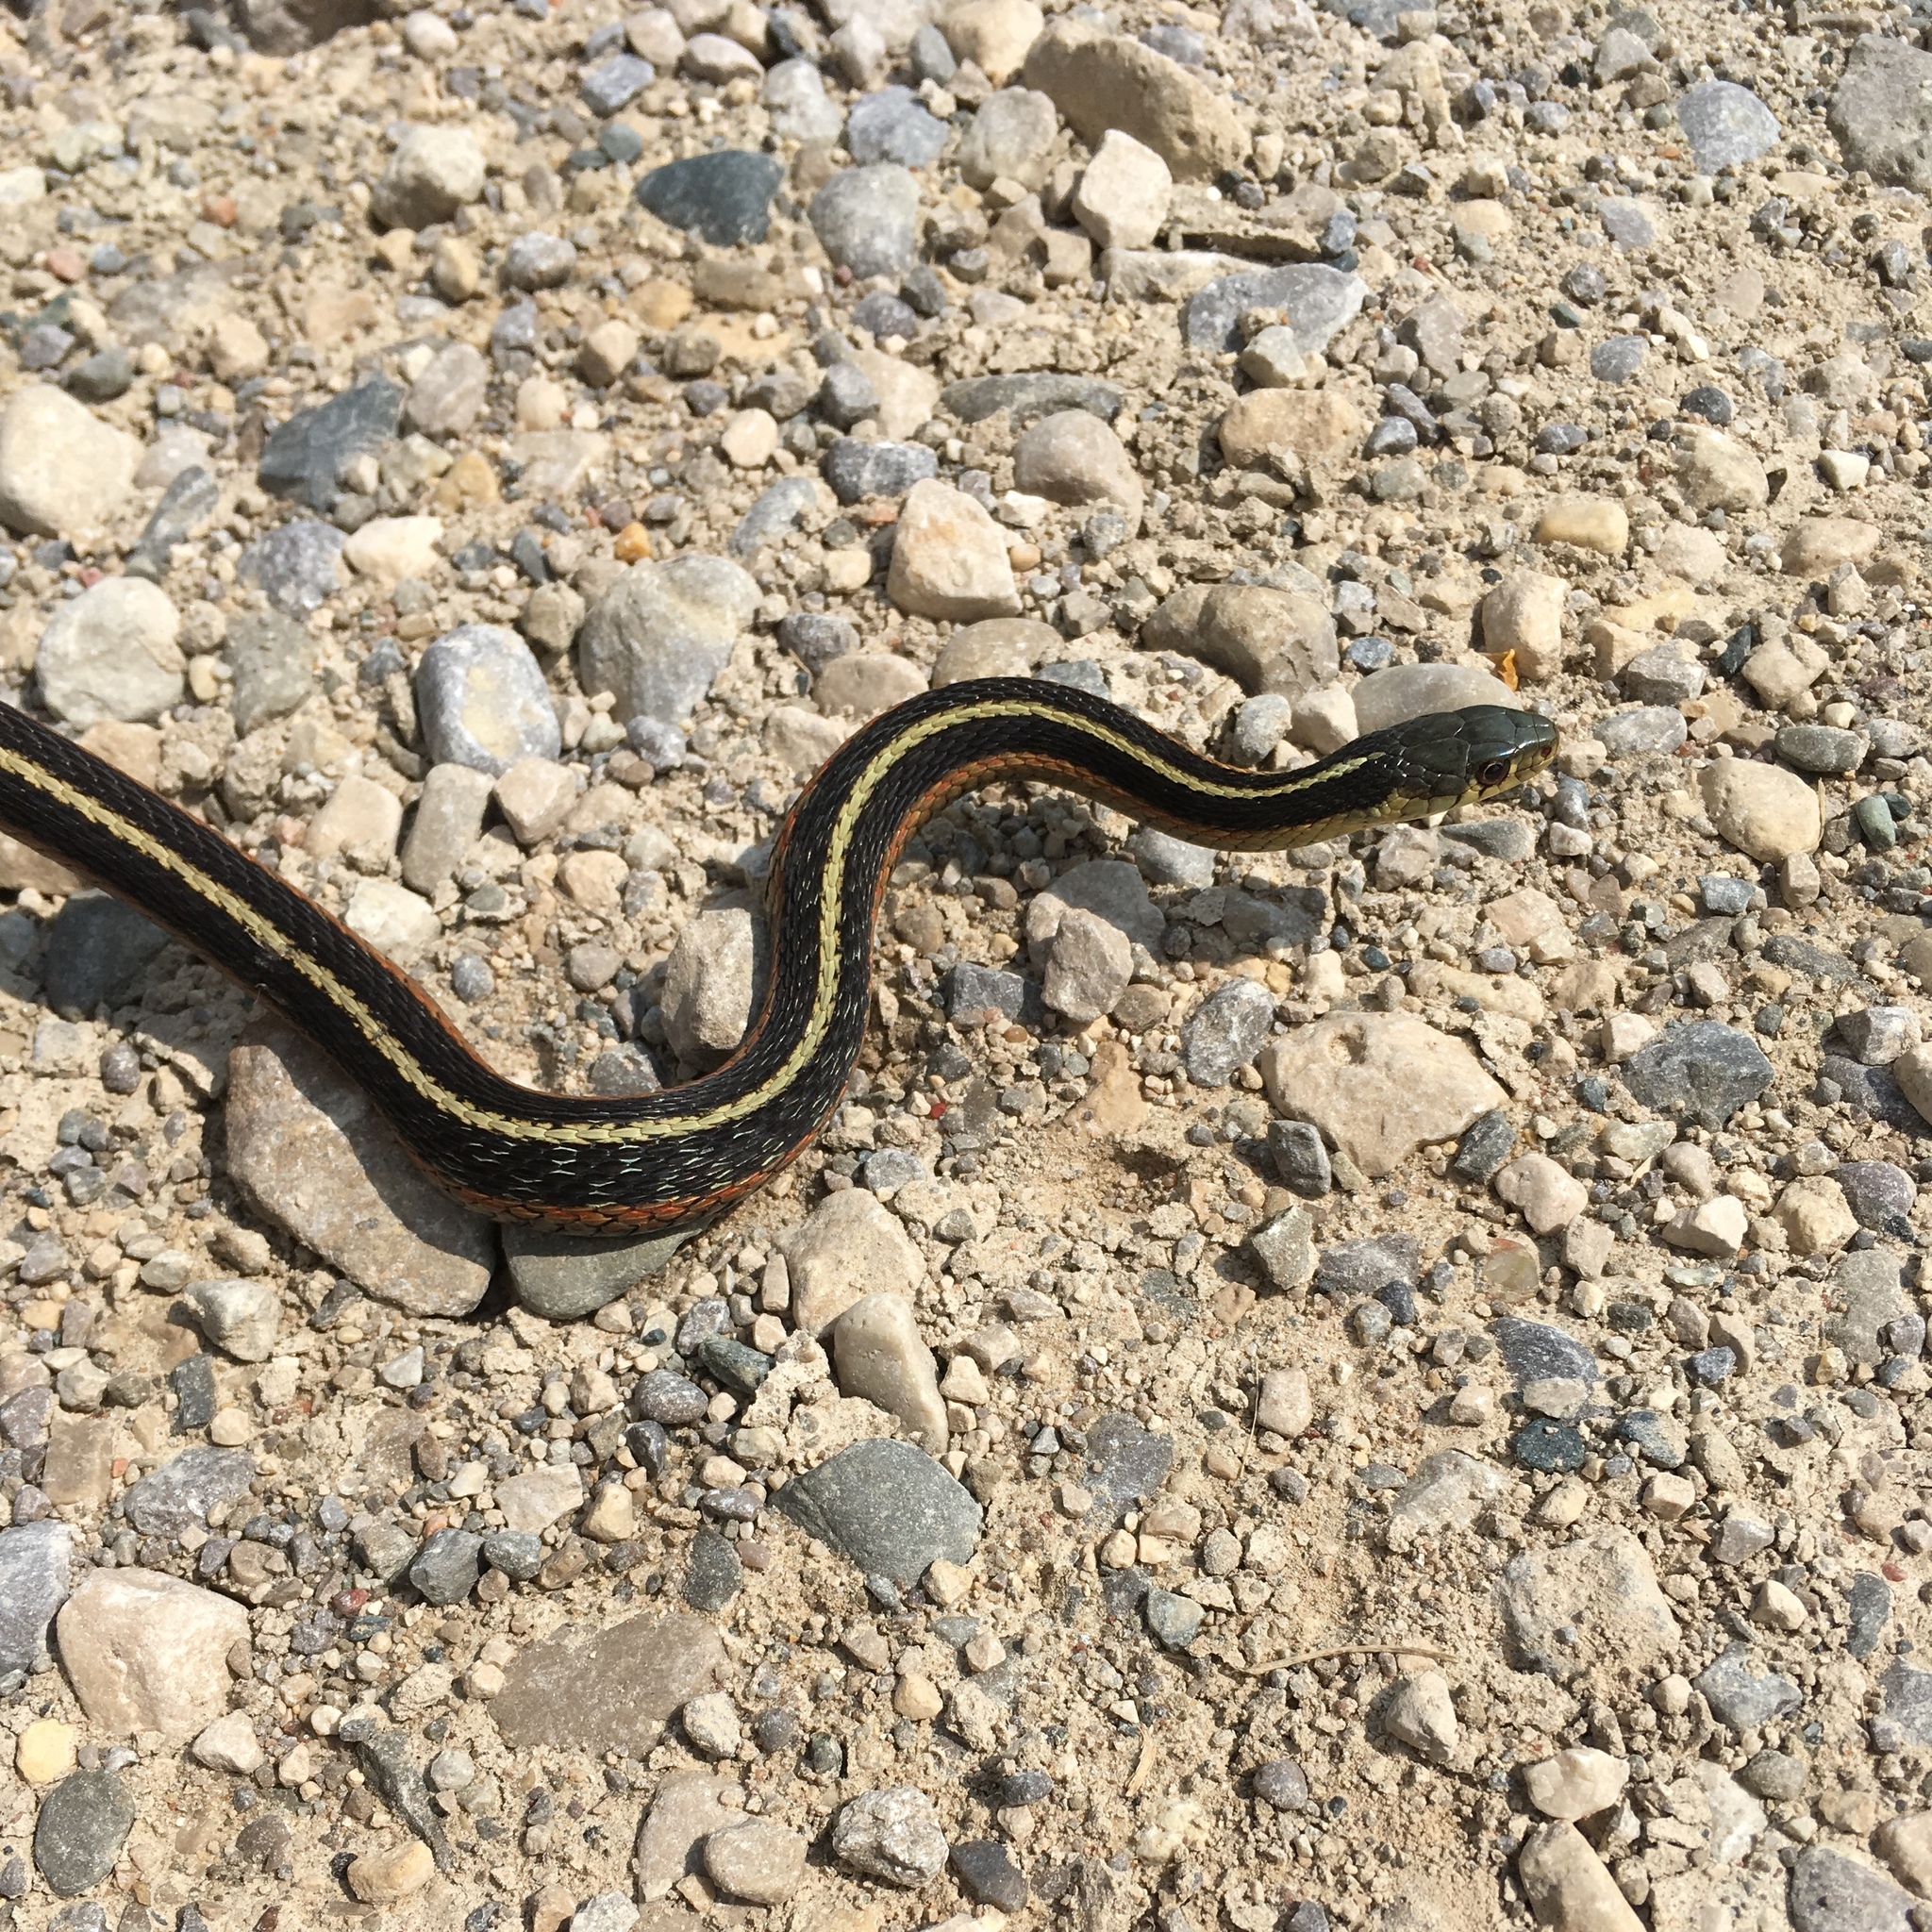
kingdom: Animalia
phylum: Chordata
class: Squamata
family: Colubridae
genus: Thamnophis
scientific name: Thamnophis sirtalis
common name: Common garter snake
